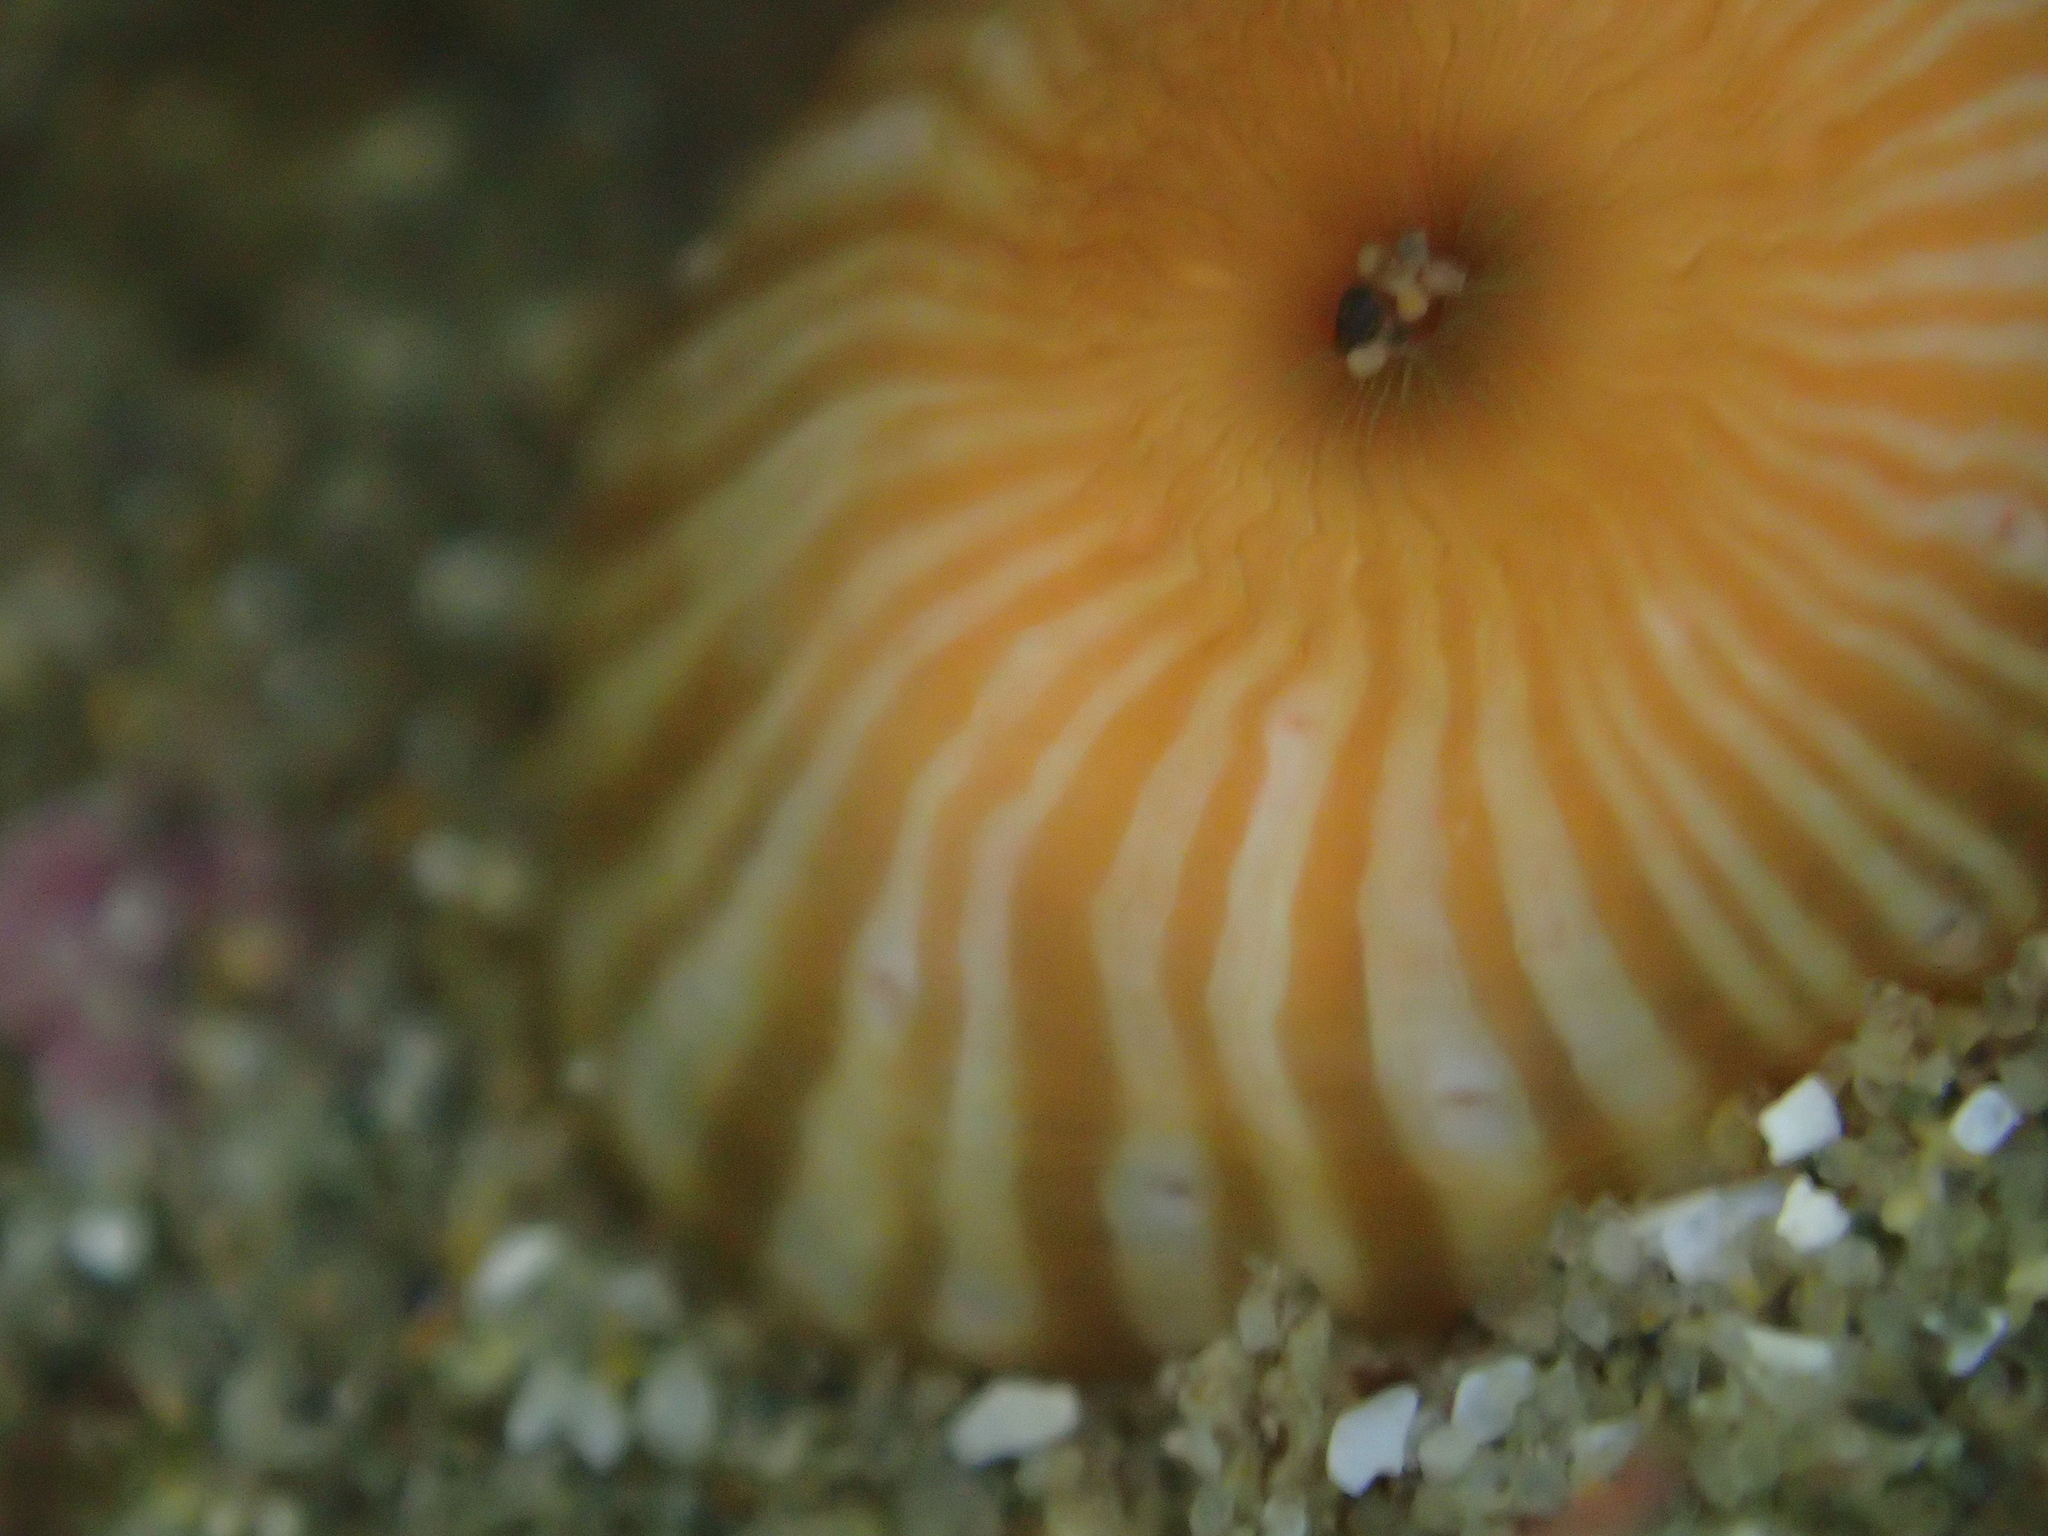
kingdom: Animalia
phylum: Cnidaria
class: Anthozoa
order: Actiniaria
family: Sagartiidae
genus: Anthothoe
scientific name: Anthothoe albocincta
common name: Orange striped anemone
